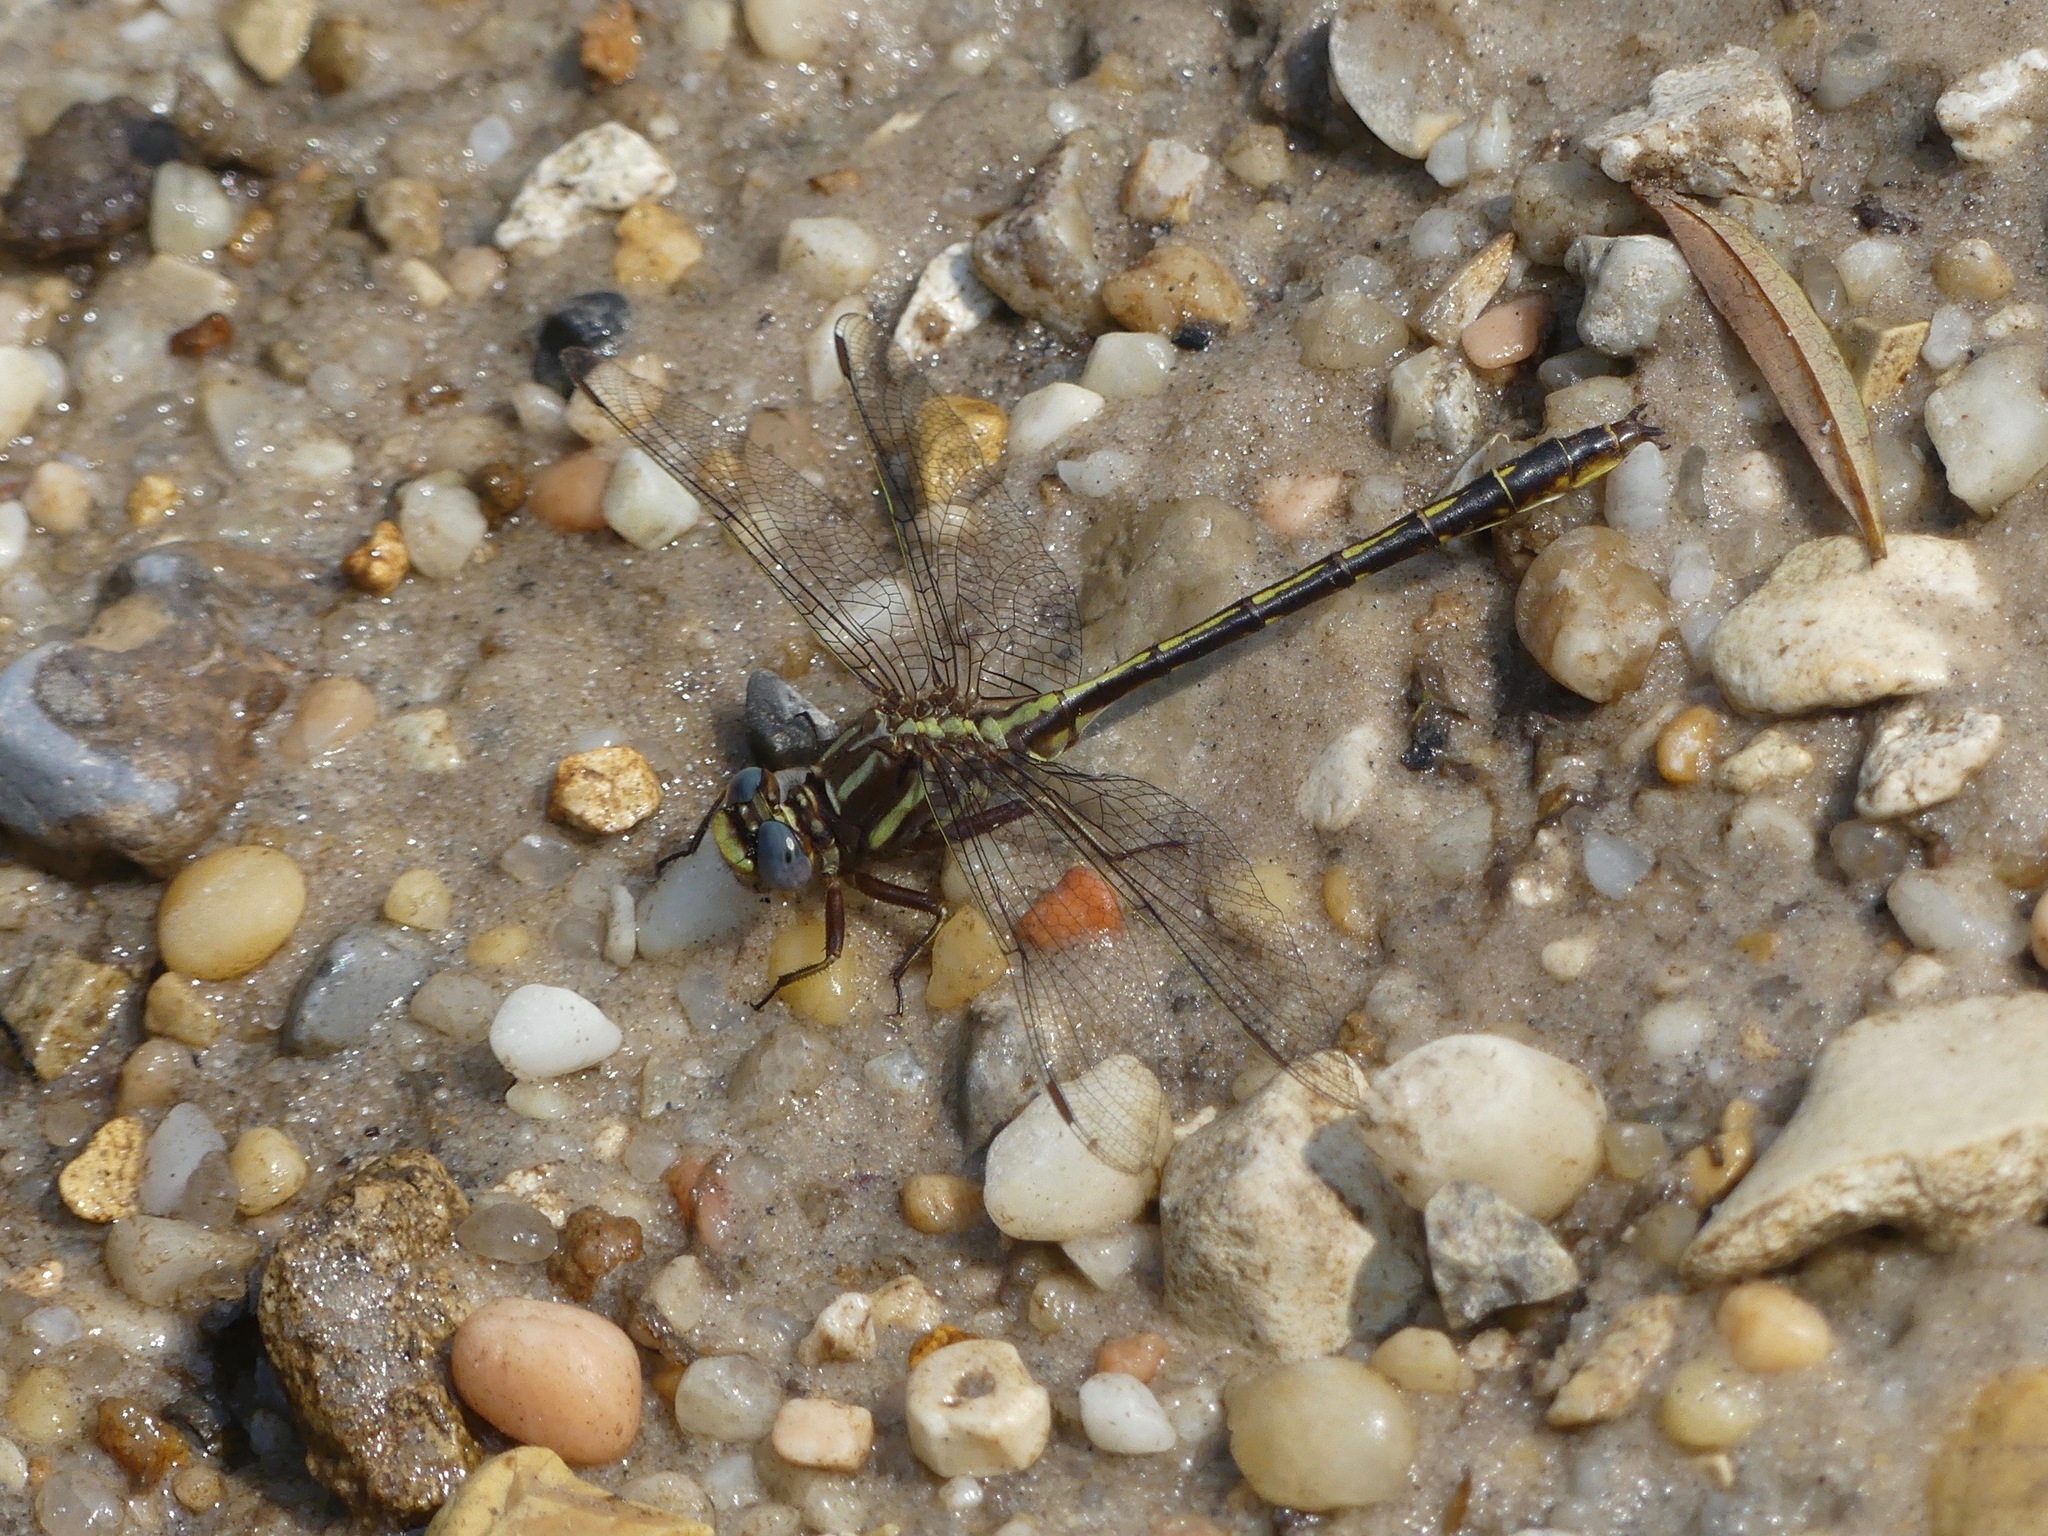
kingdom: Animalia
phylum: Arthropoda
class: Insecta
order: Odonata
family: Gomphidae
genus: Phanogomphus
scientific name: Phanogomphus lividus
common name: Ashy clubtail
